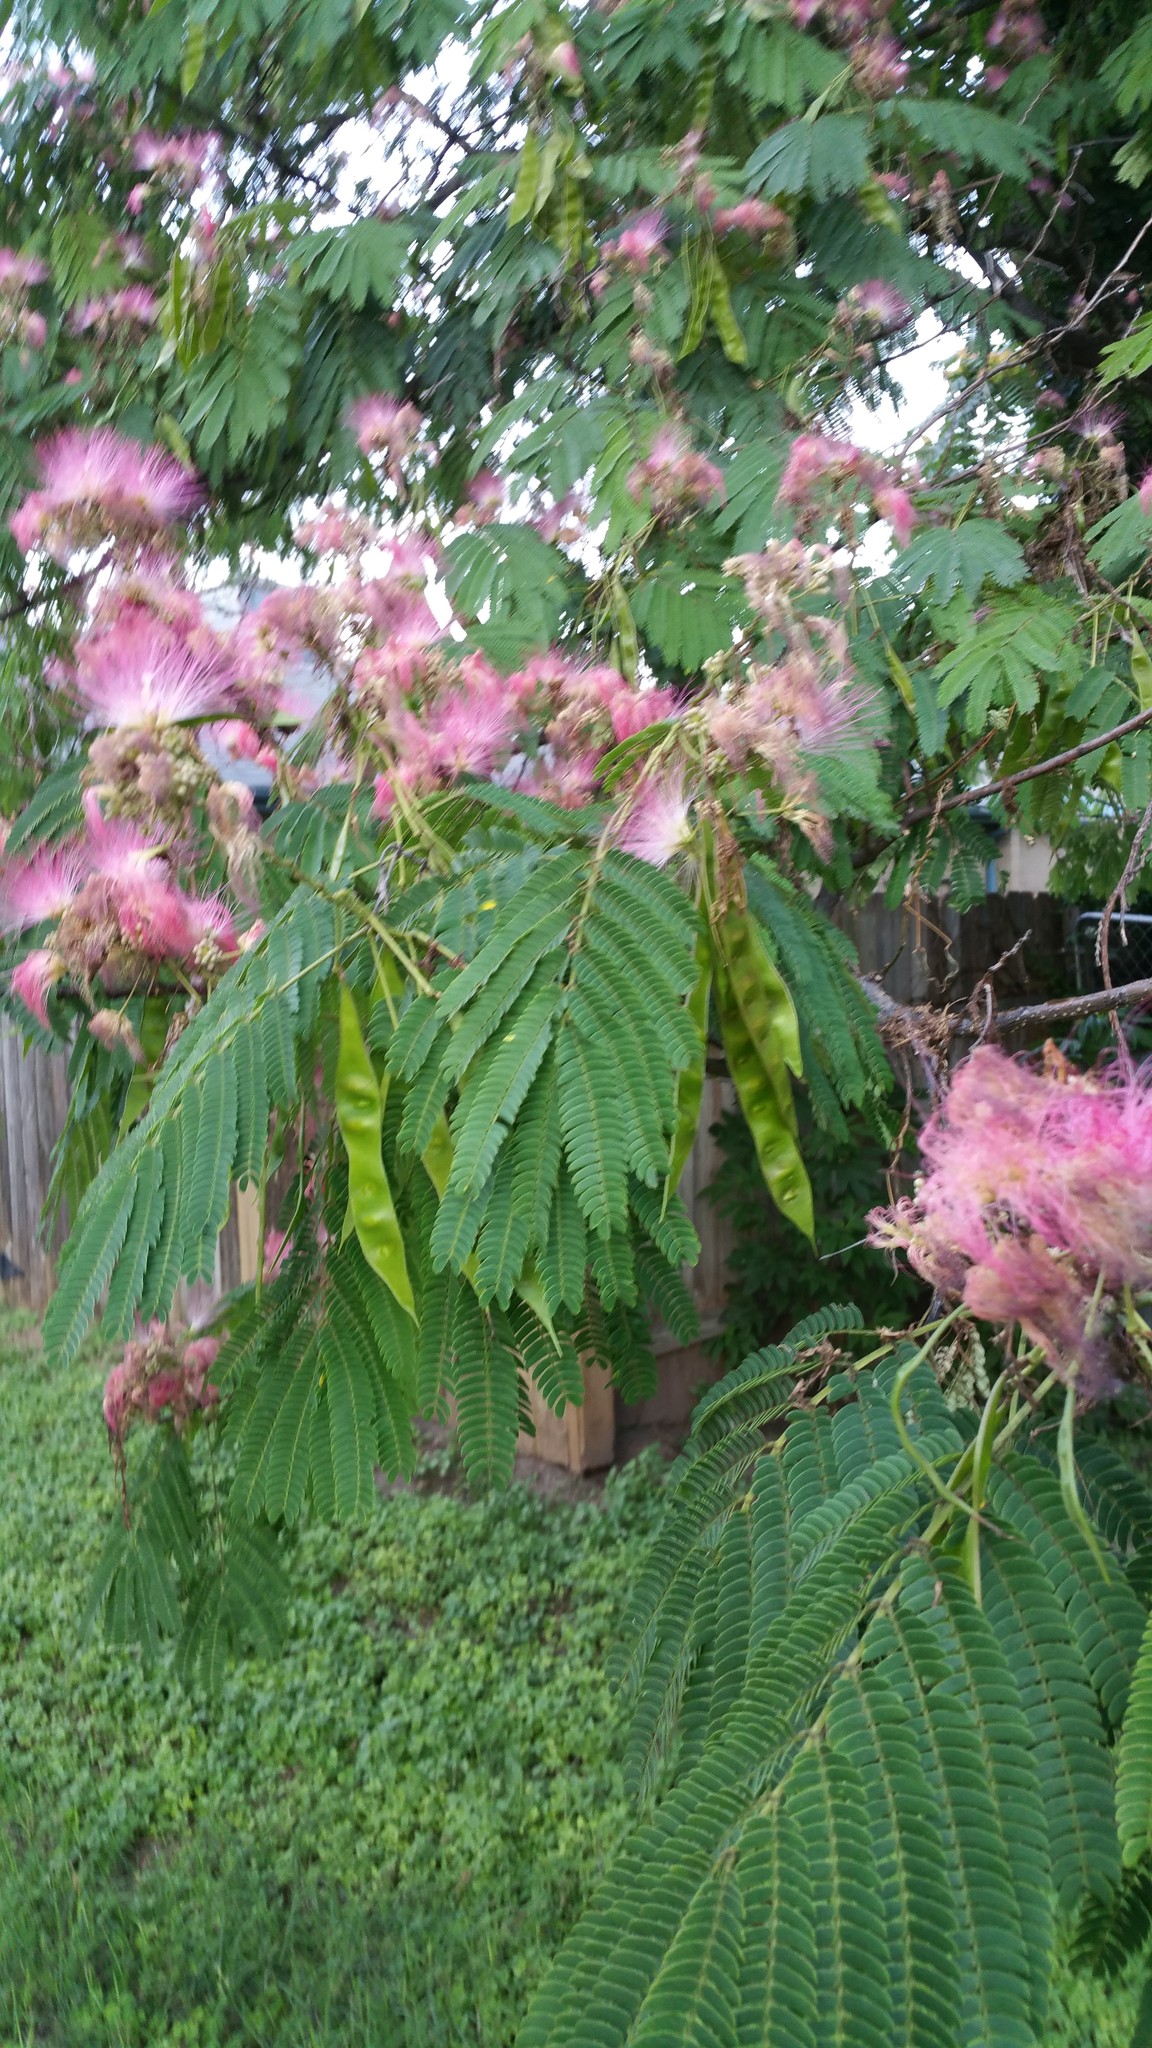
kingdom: Plantae
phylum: Tracheophyta
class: Magnoliopsida
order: Fabales
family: Fabaceae
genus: Albizia
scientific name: Albizia julibrissin
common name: Silktree
